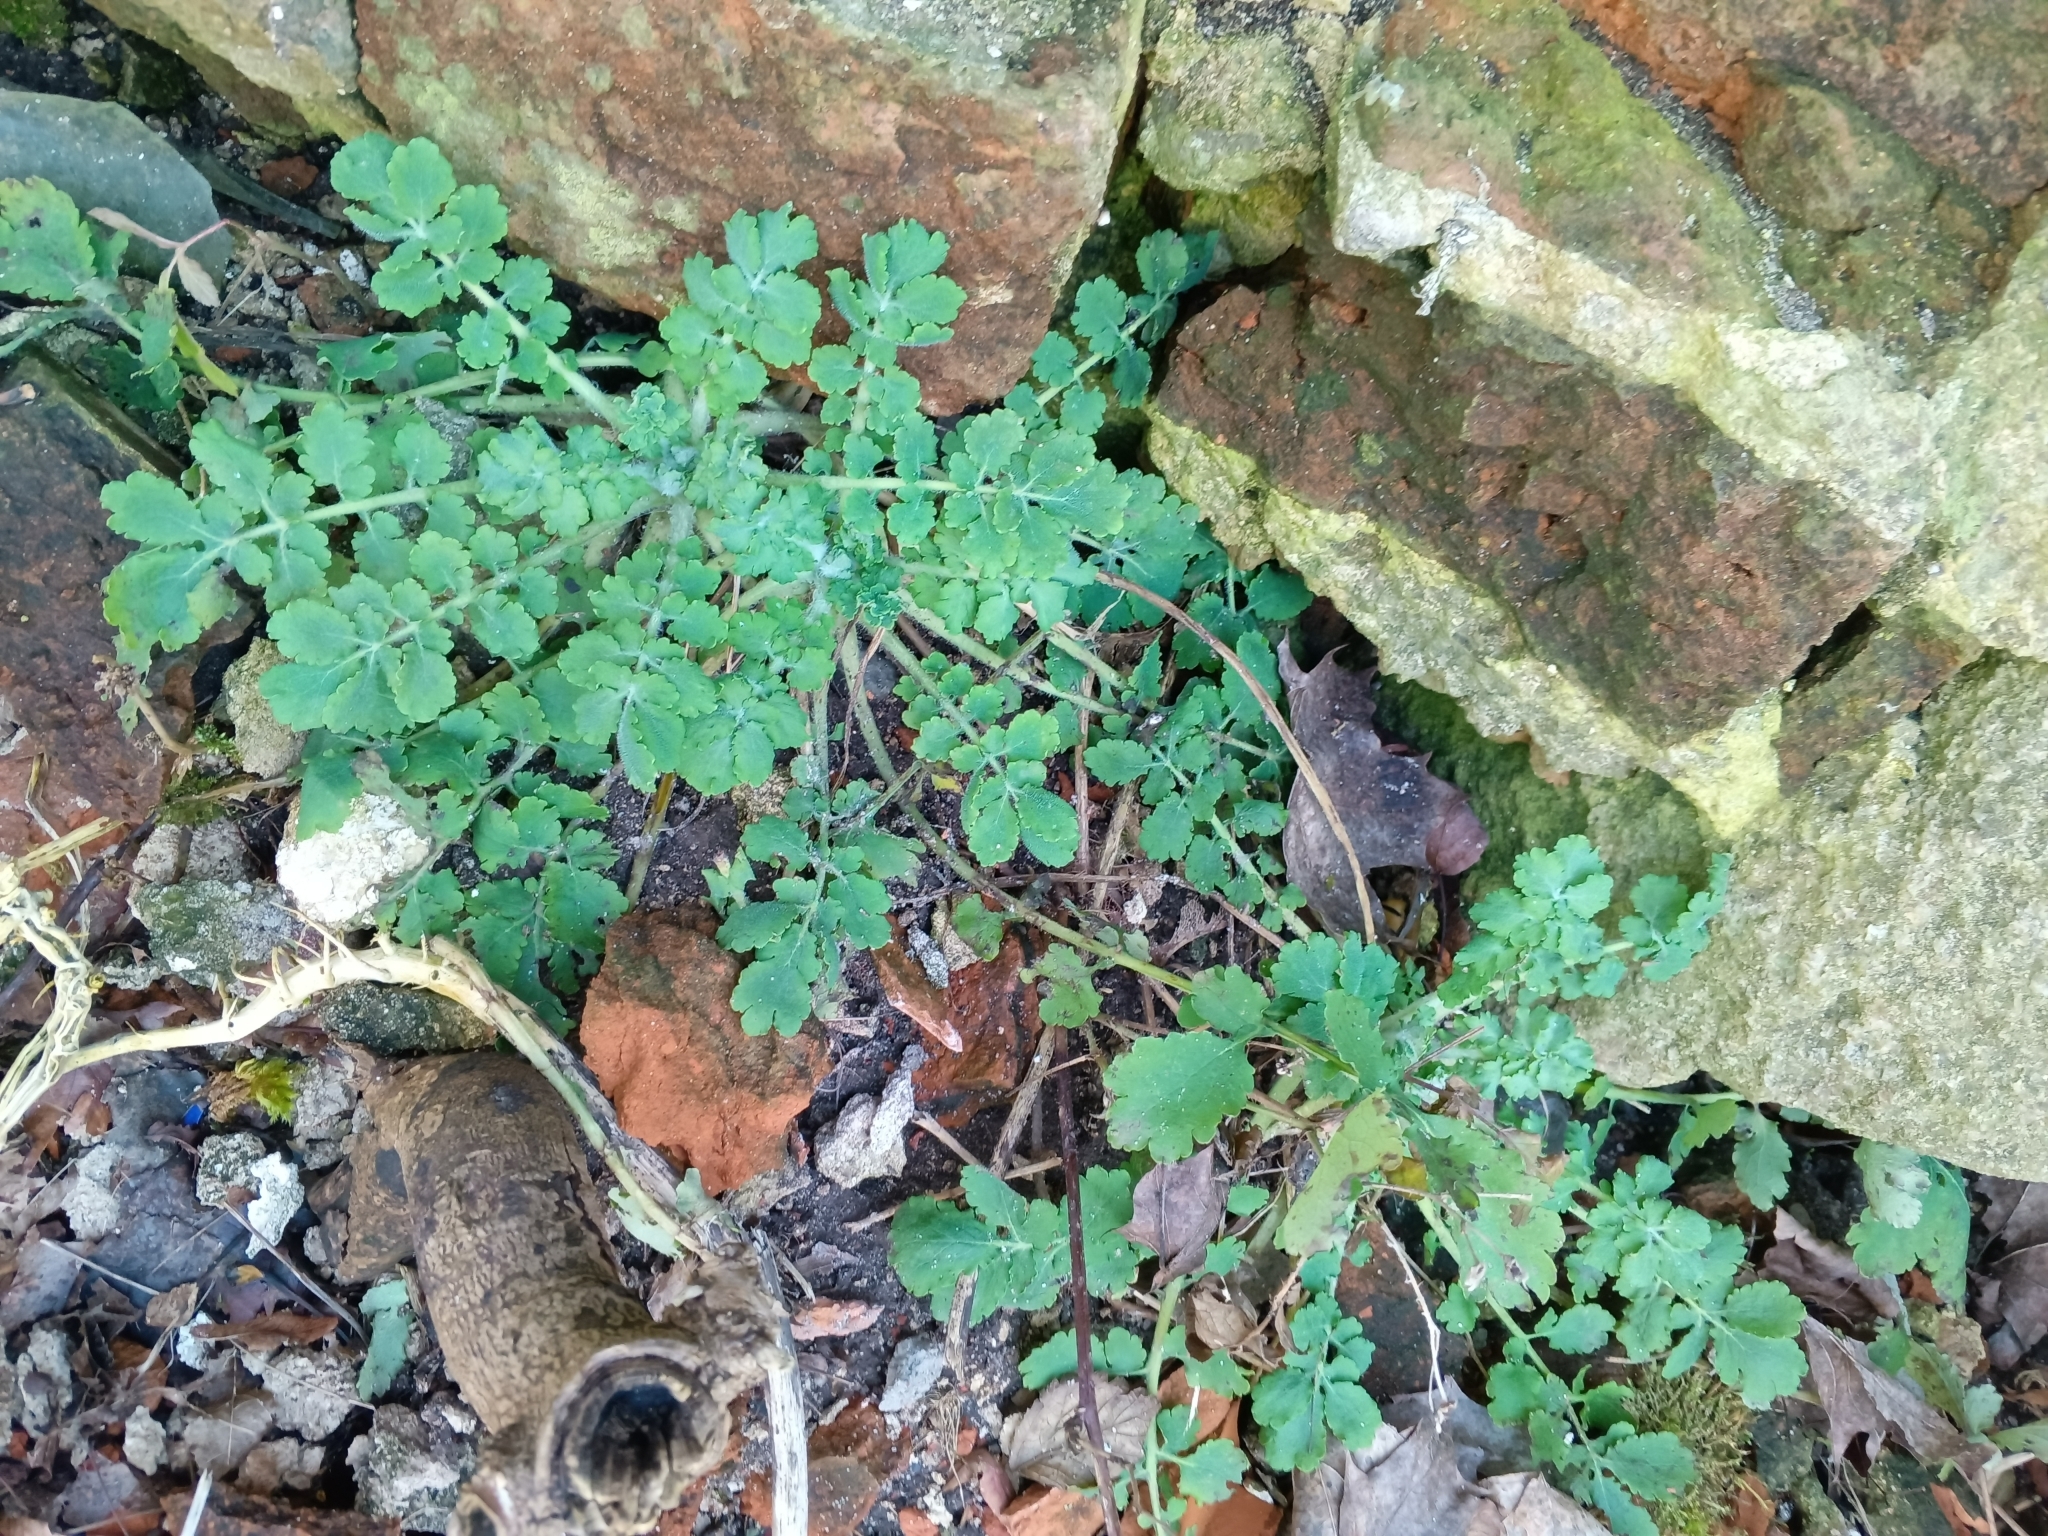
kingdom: Plantae
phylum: Tracheophyta
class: Magnoliopsida
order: Ranunculales
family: Papaveraceae
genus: Chelidonium
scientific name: Chelidonium majus
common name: Greater celandine
